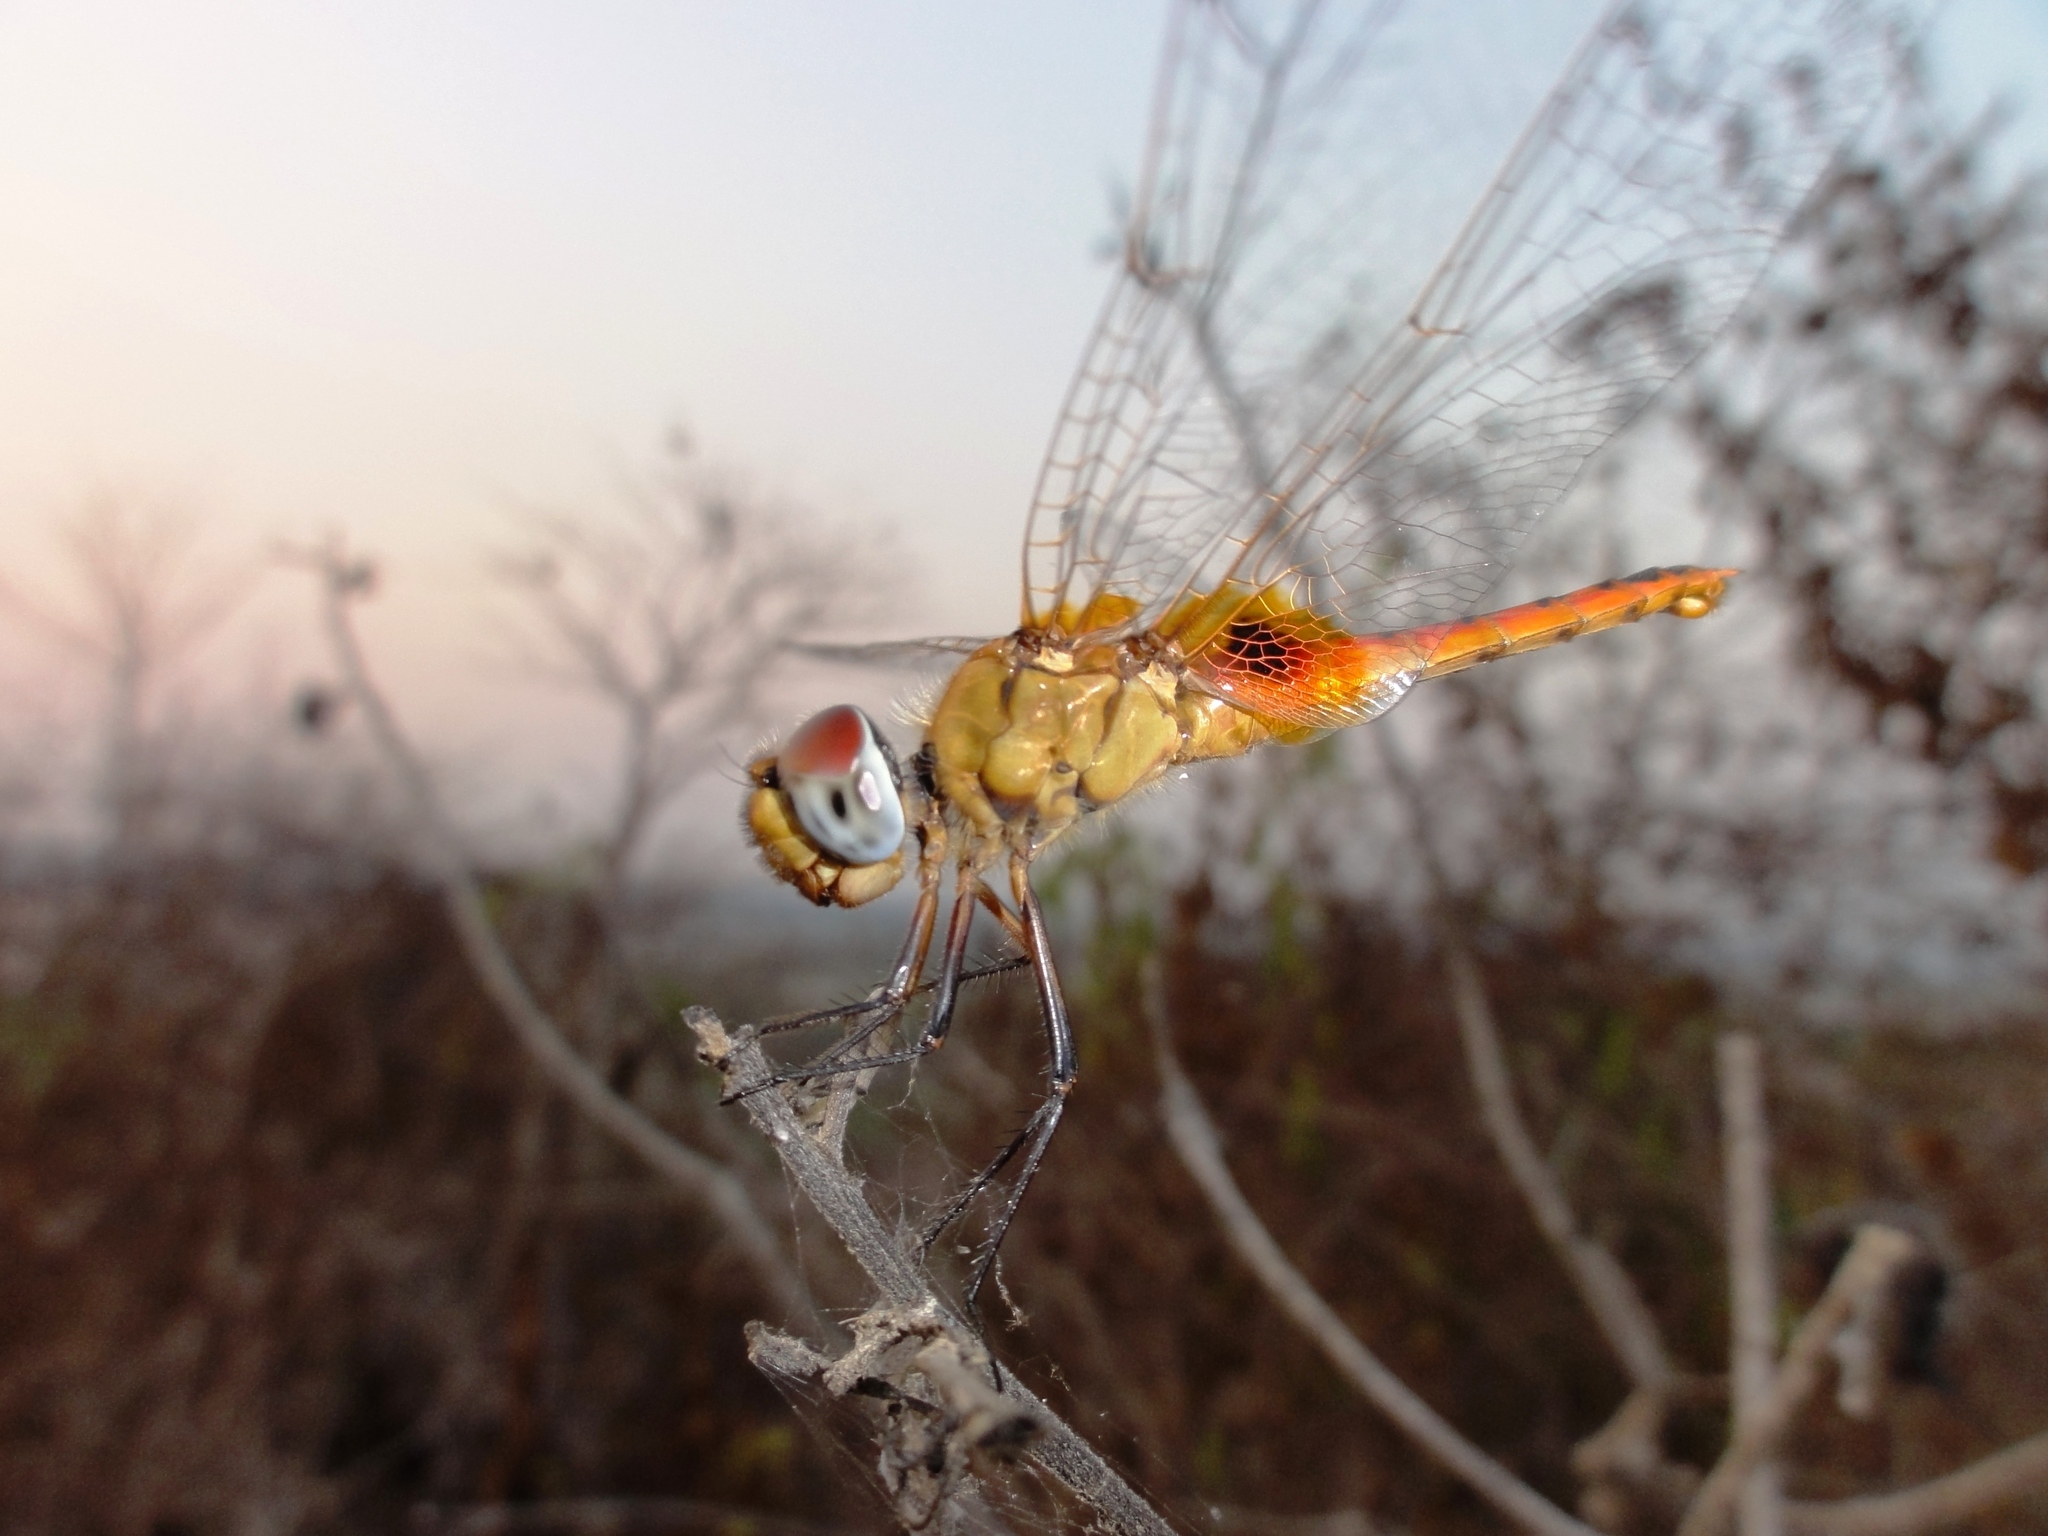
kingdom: Animalia
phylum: Arthropoda
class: Insecta
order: Odonata
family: Libellulidae
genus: Aethriamanta
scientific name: Aethriamanta aethra
